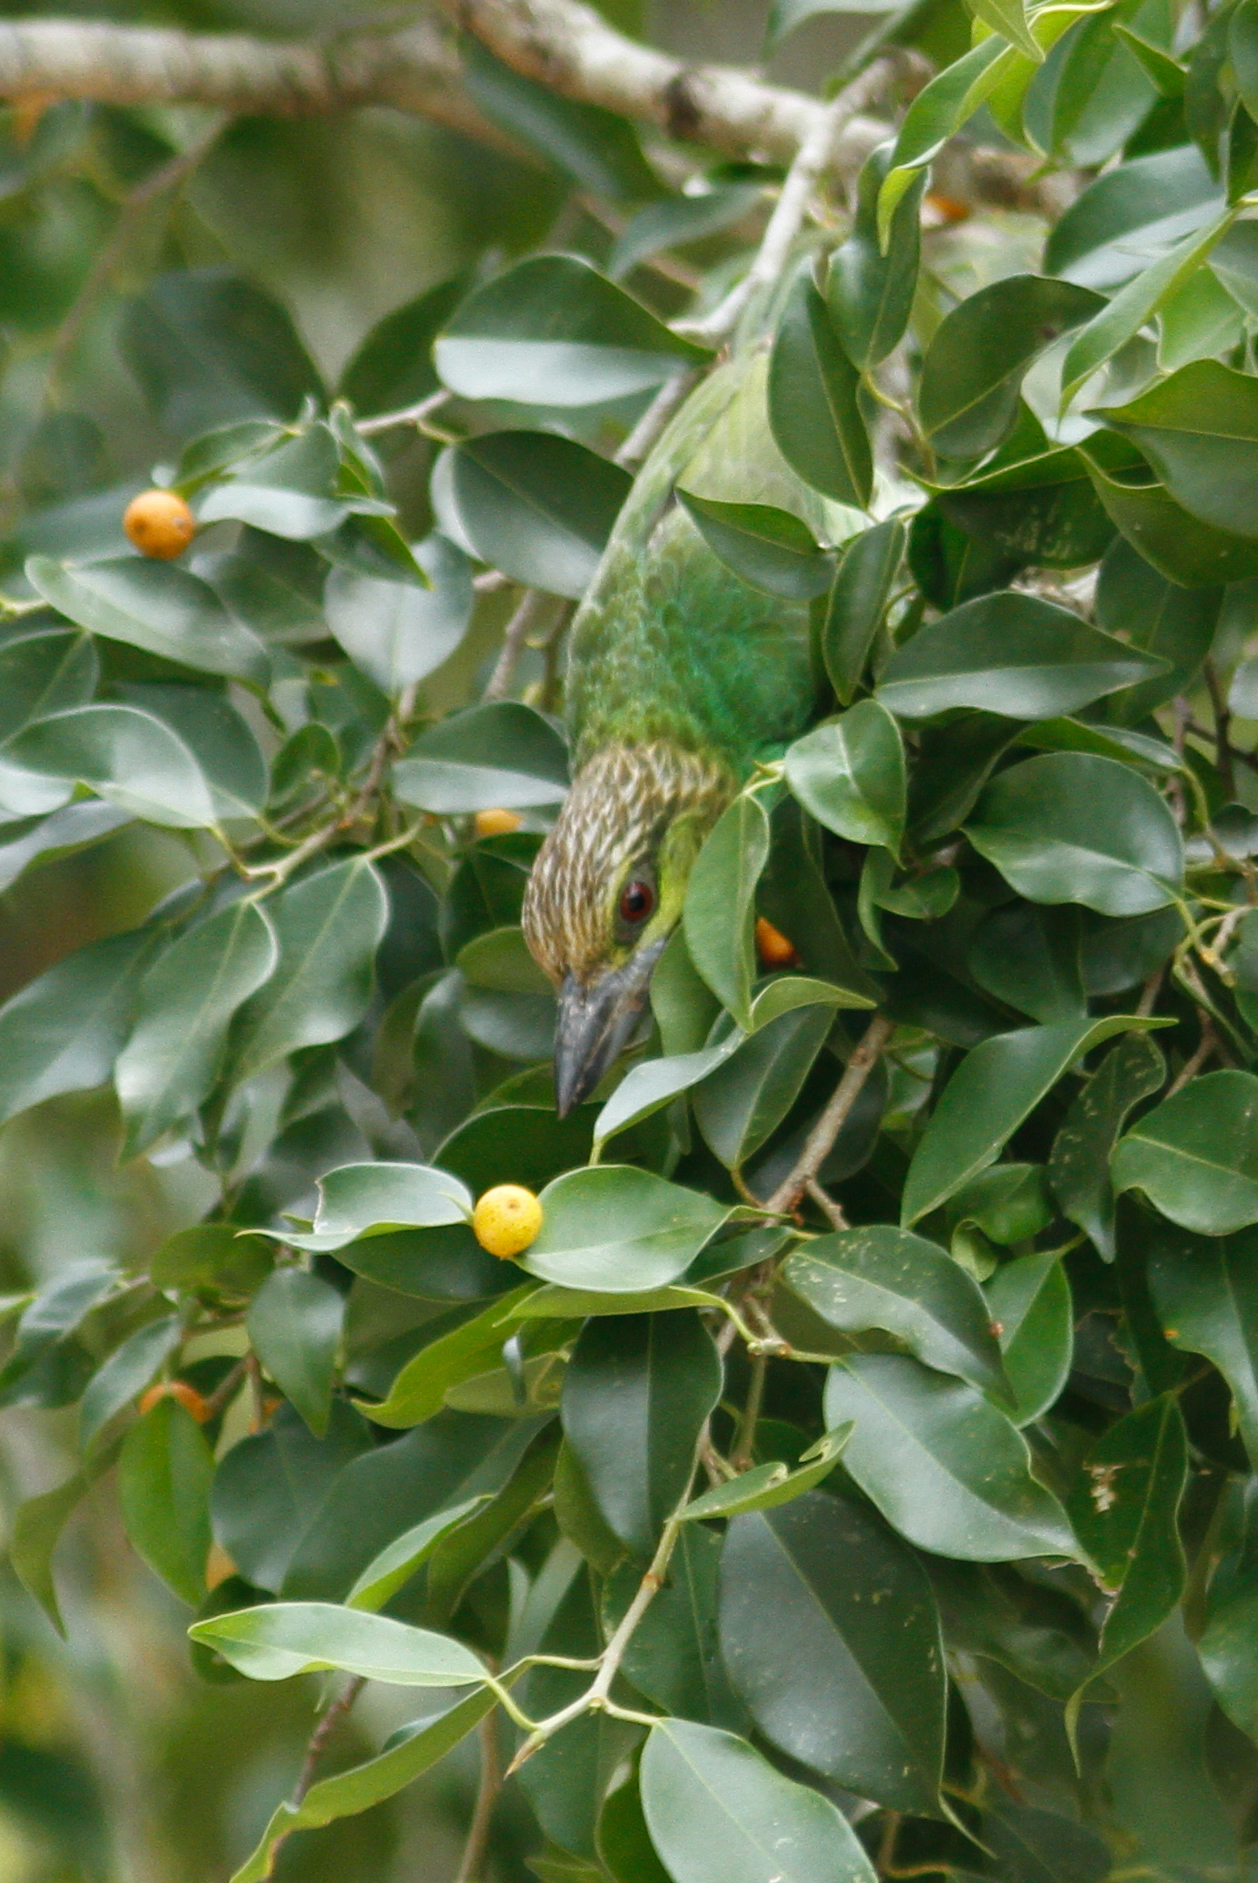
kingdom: Animalia
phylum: Chordata
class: Aves
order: Piciformes
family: Megalaimidae
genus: Psilopogon
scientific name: Psilopogon faiostrictus
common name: Green-eared barbet
